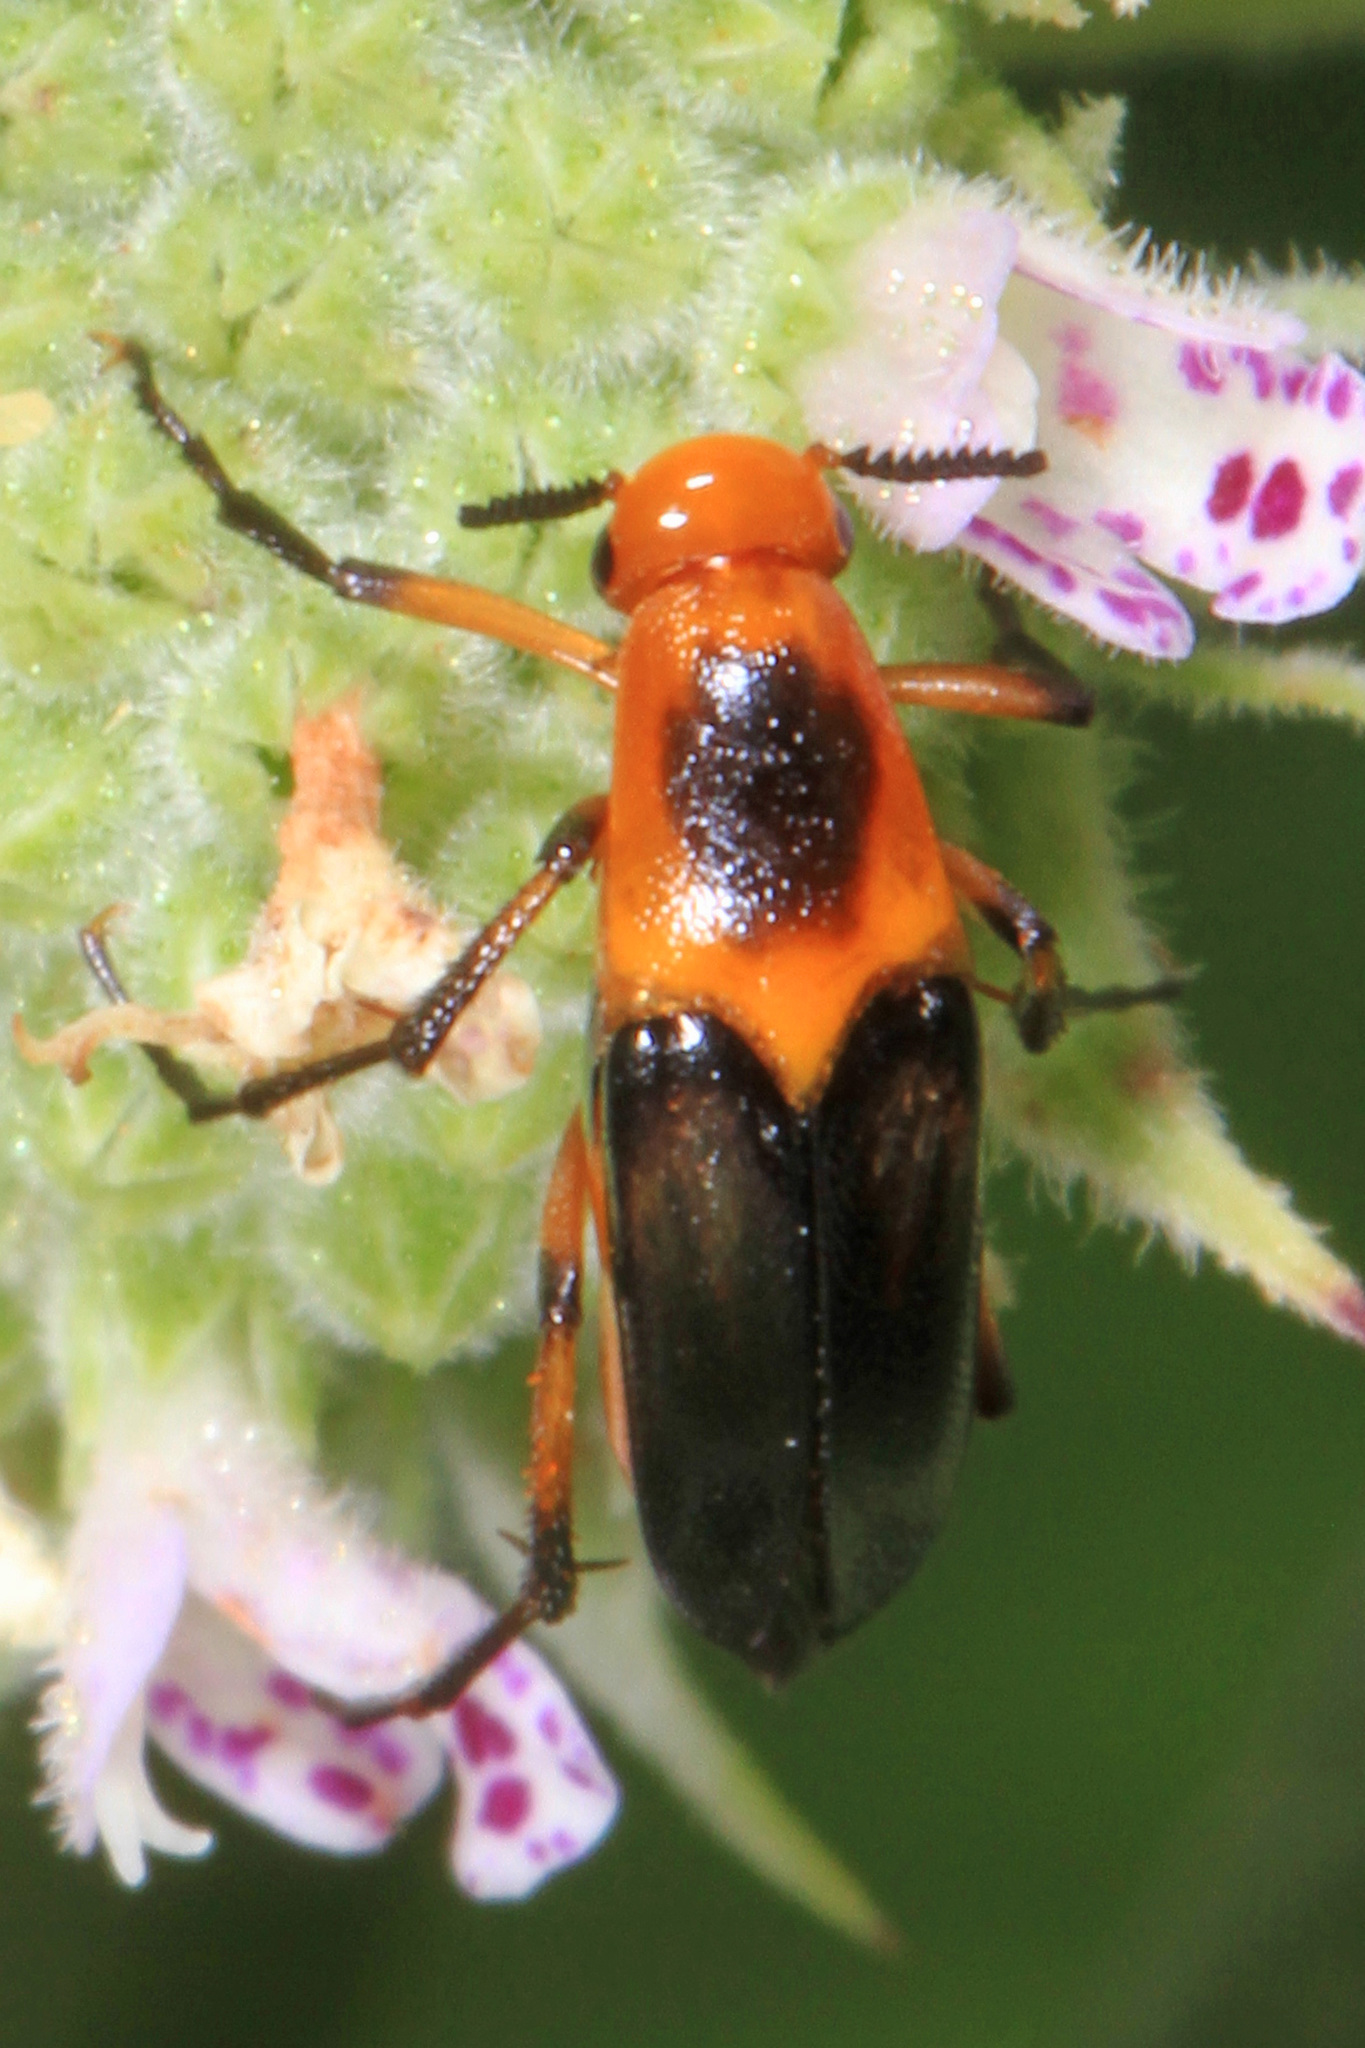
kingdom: Animalia
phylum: Arthropoda
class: Insecta
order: Coleoptera
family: Ripiphoridae
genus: Macrosiagon
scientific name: Macrosiagon limbatum
